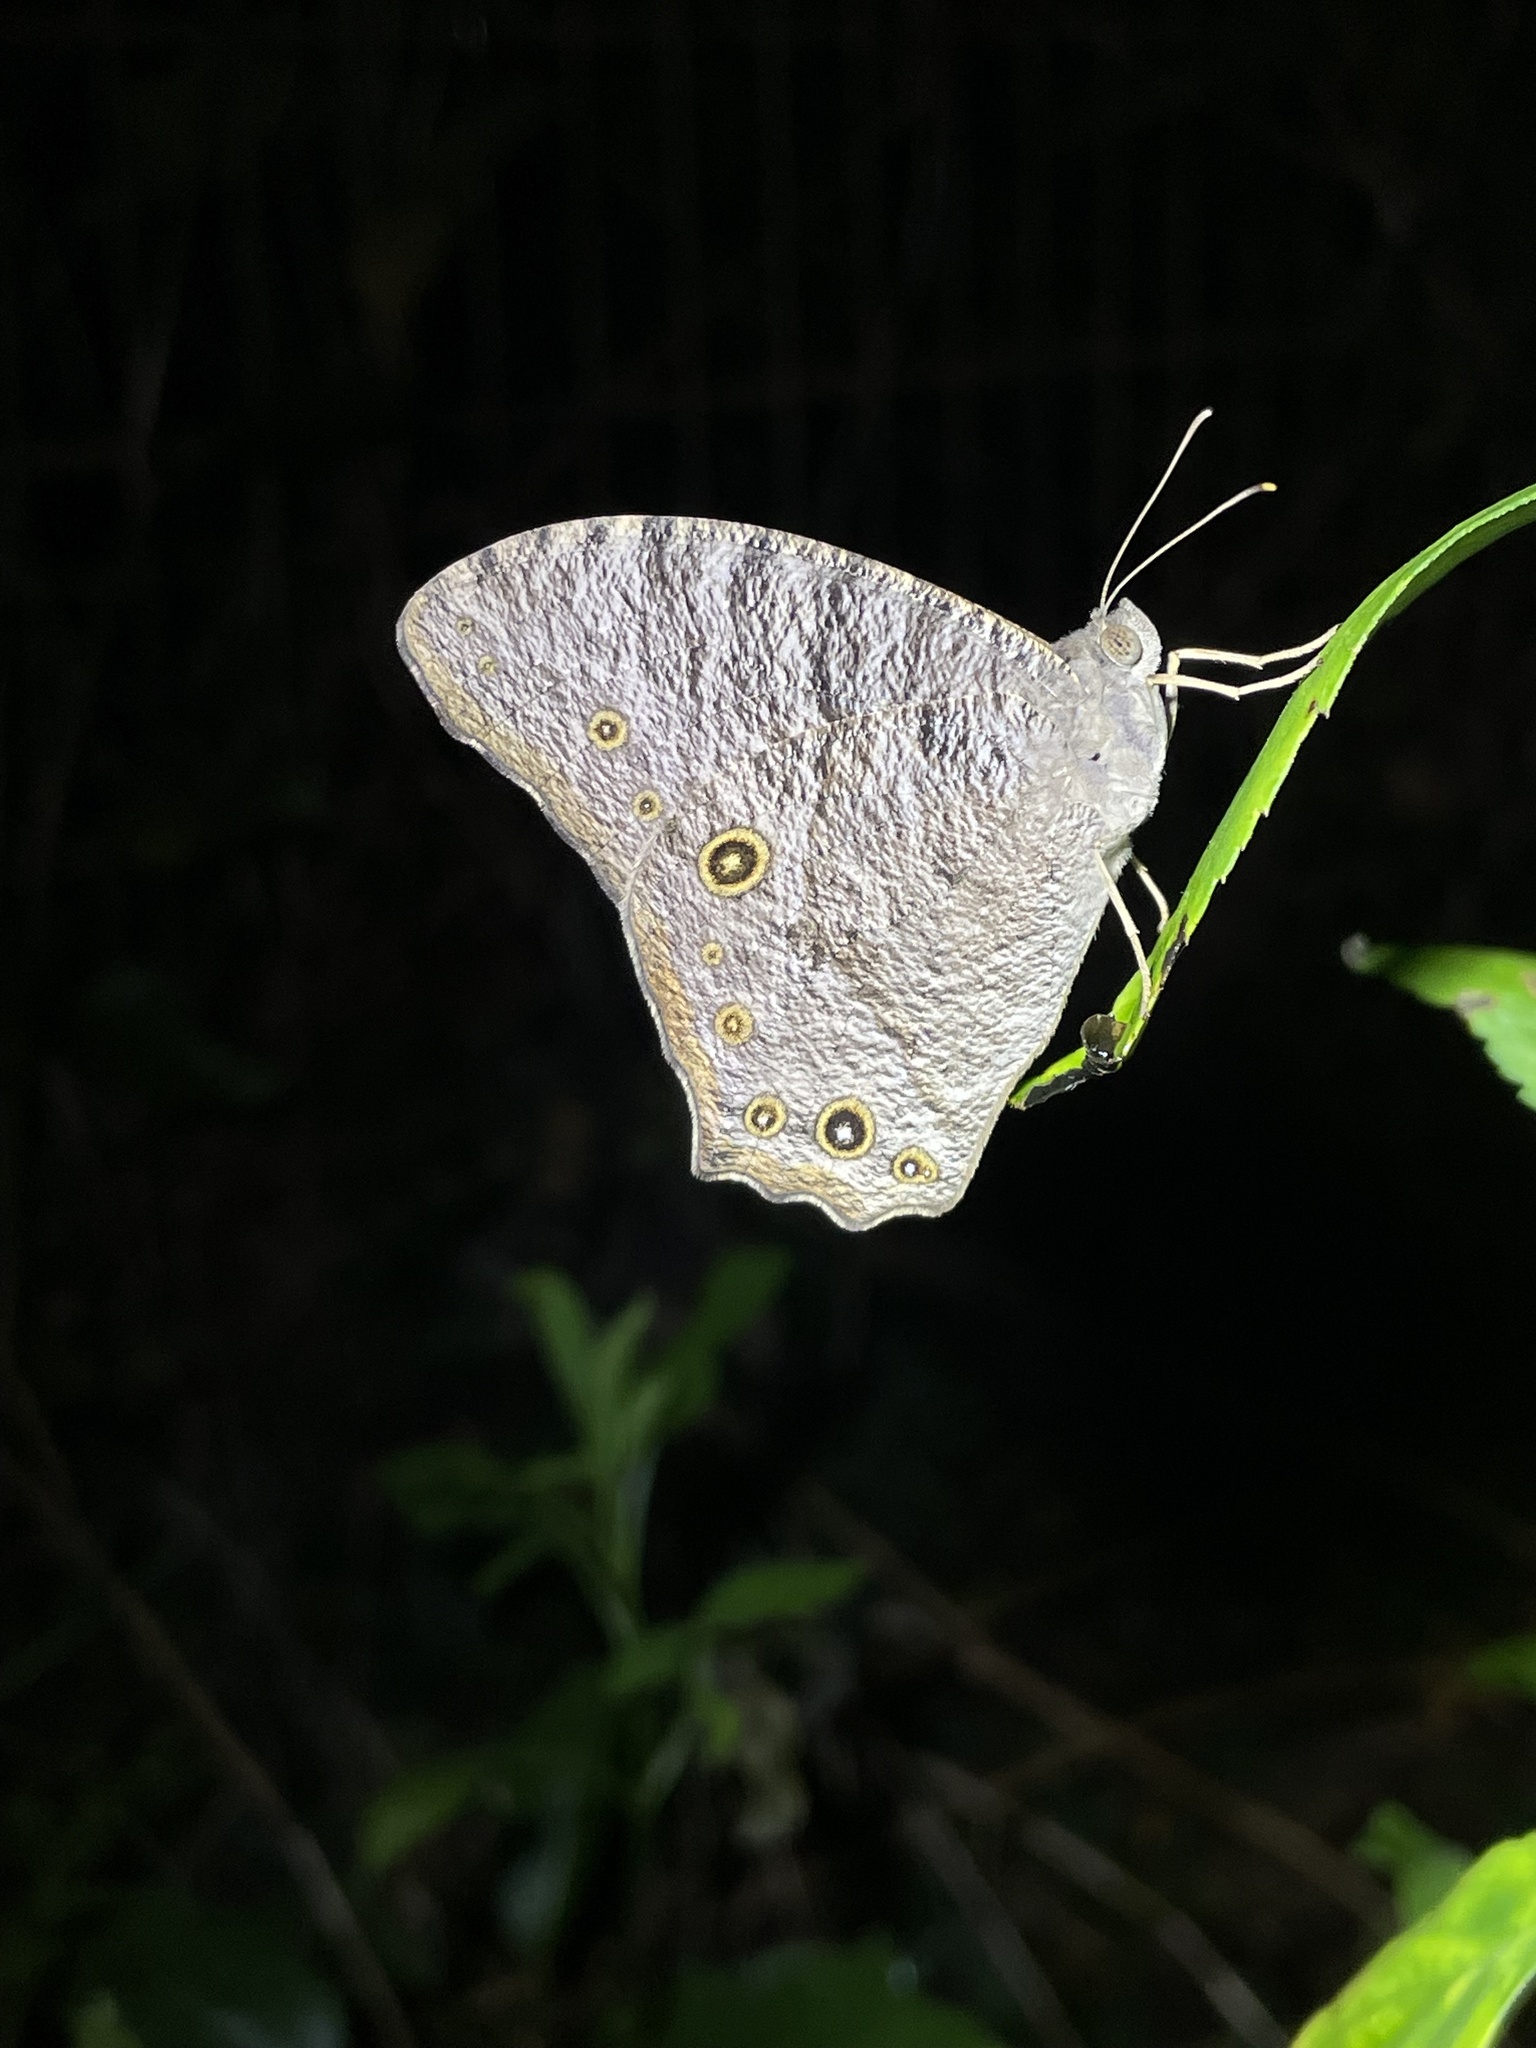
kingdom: Animalia
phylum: Arthropoda
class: Insecta
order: Lepidoptera
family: Nymphalidae
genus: Melanitis
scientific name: Melanitis leda
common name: Twilight brown
